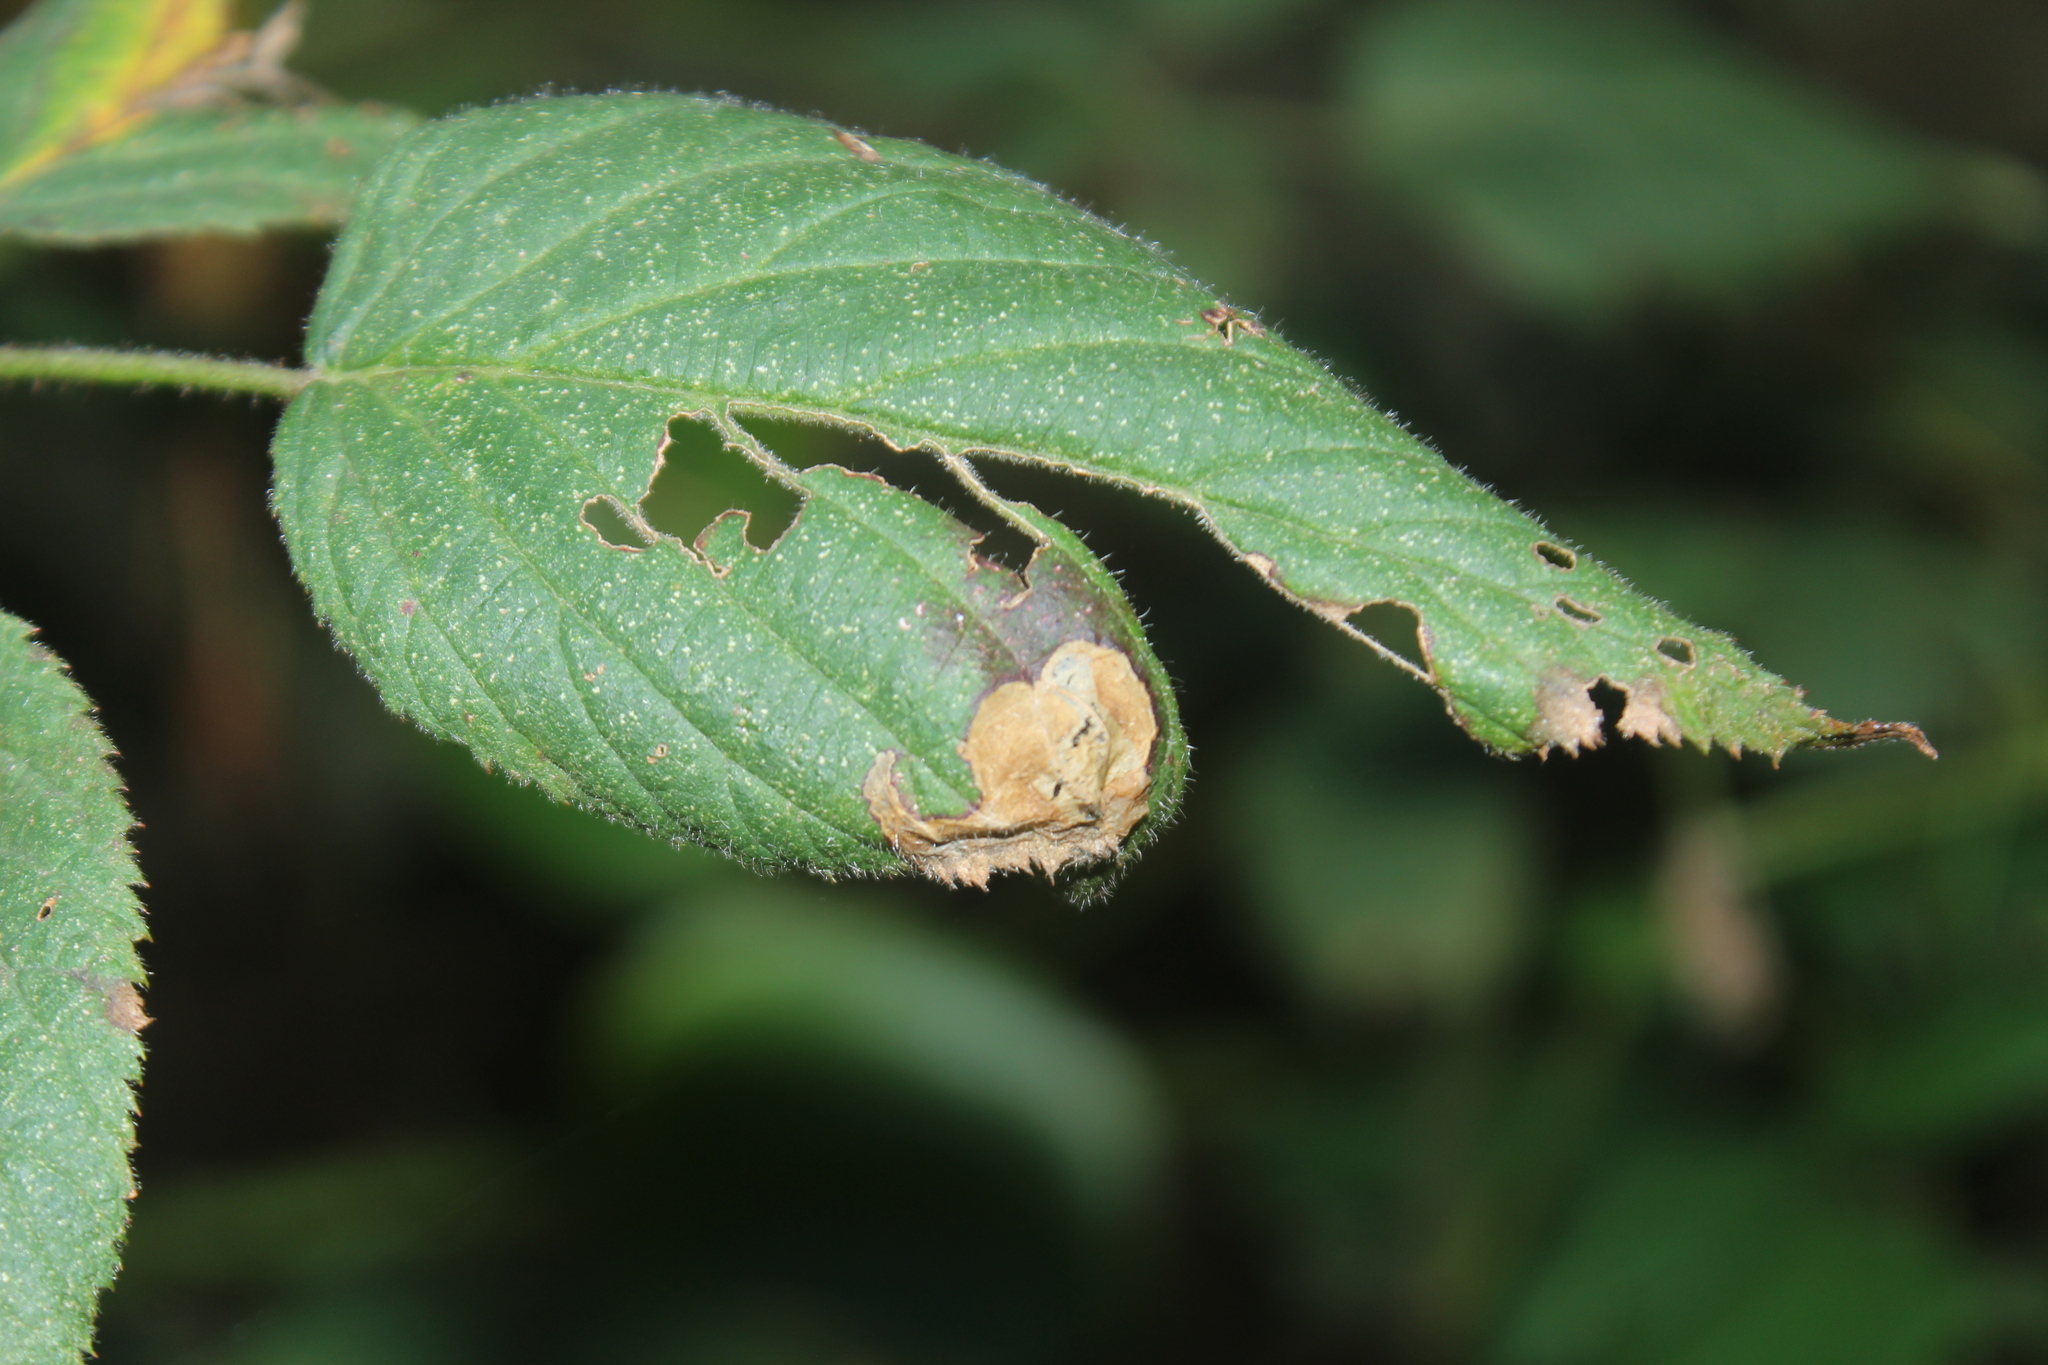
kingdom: Animalia
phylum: Arthropoda
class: Insecta
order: Hymenoptera
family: Tenthredinidae
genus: Metallus
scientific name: Metallus rohweri
